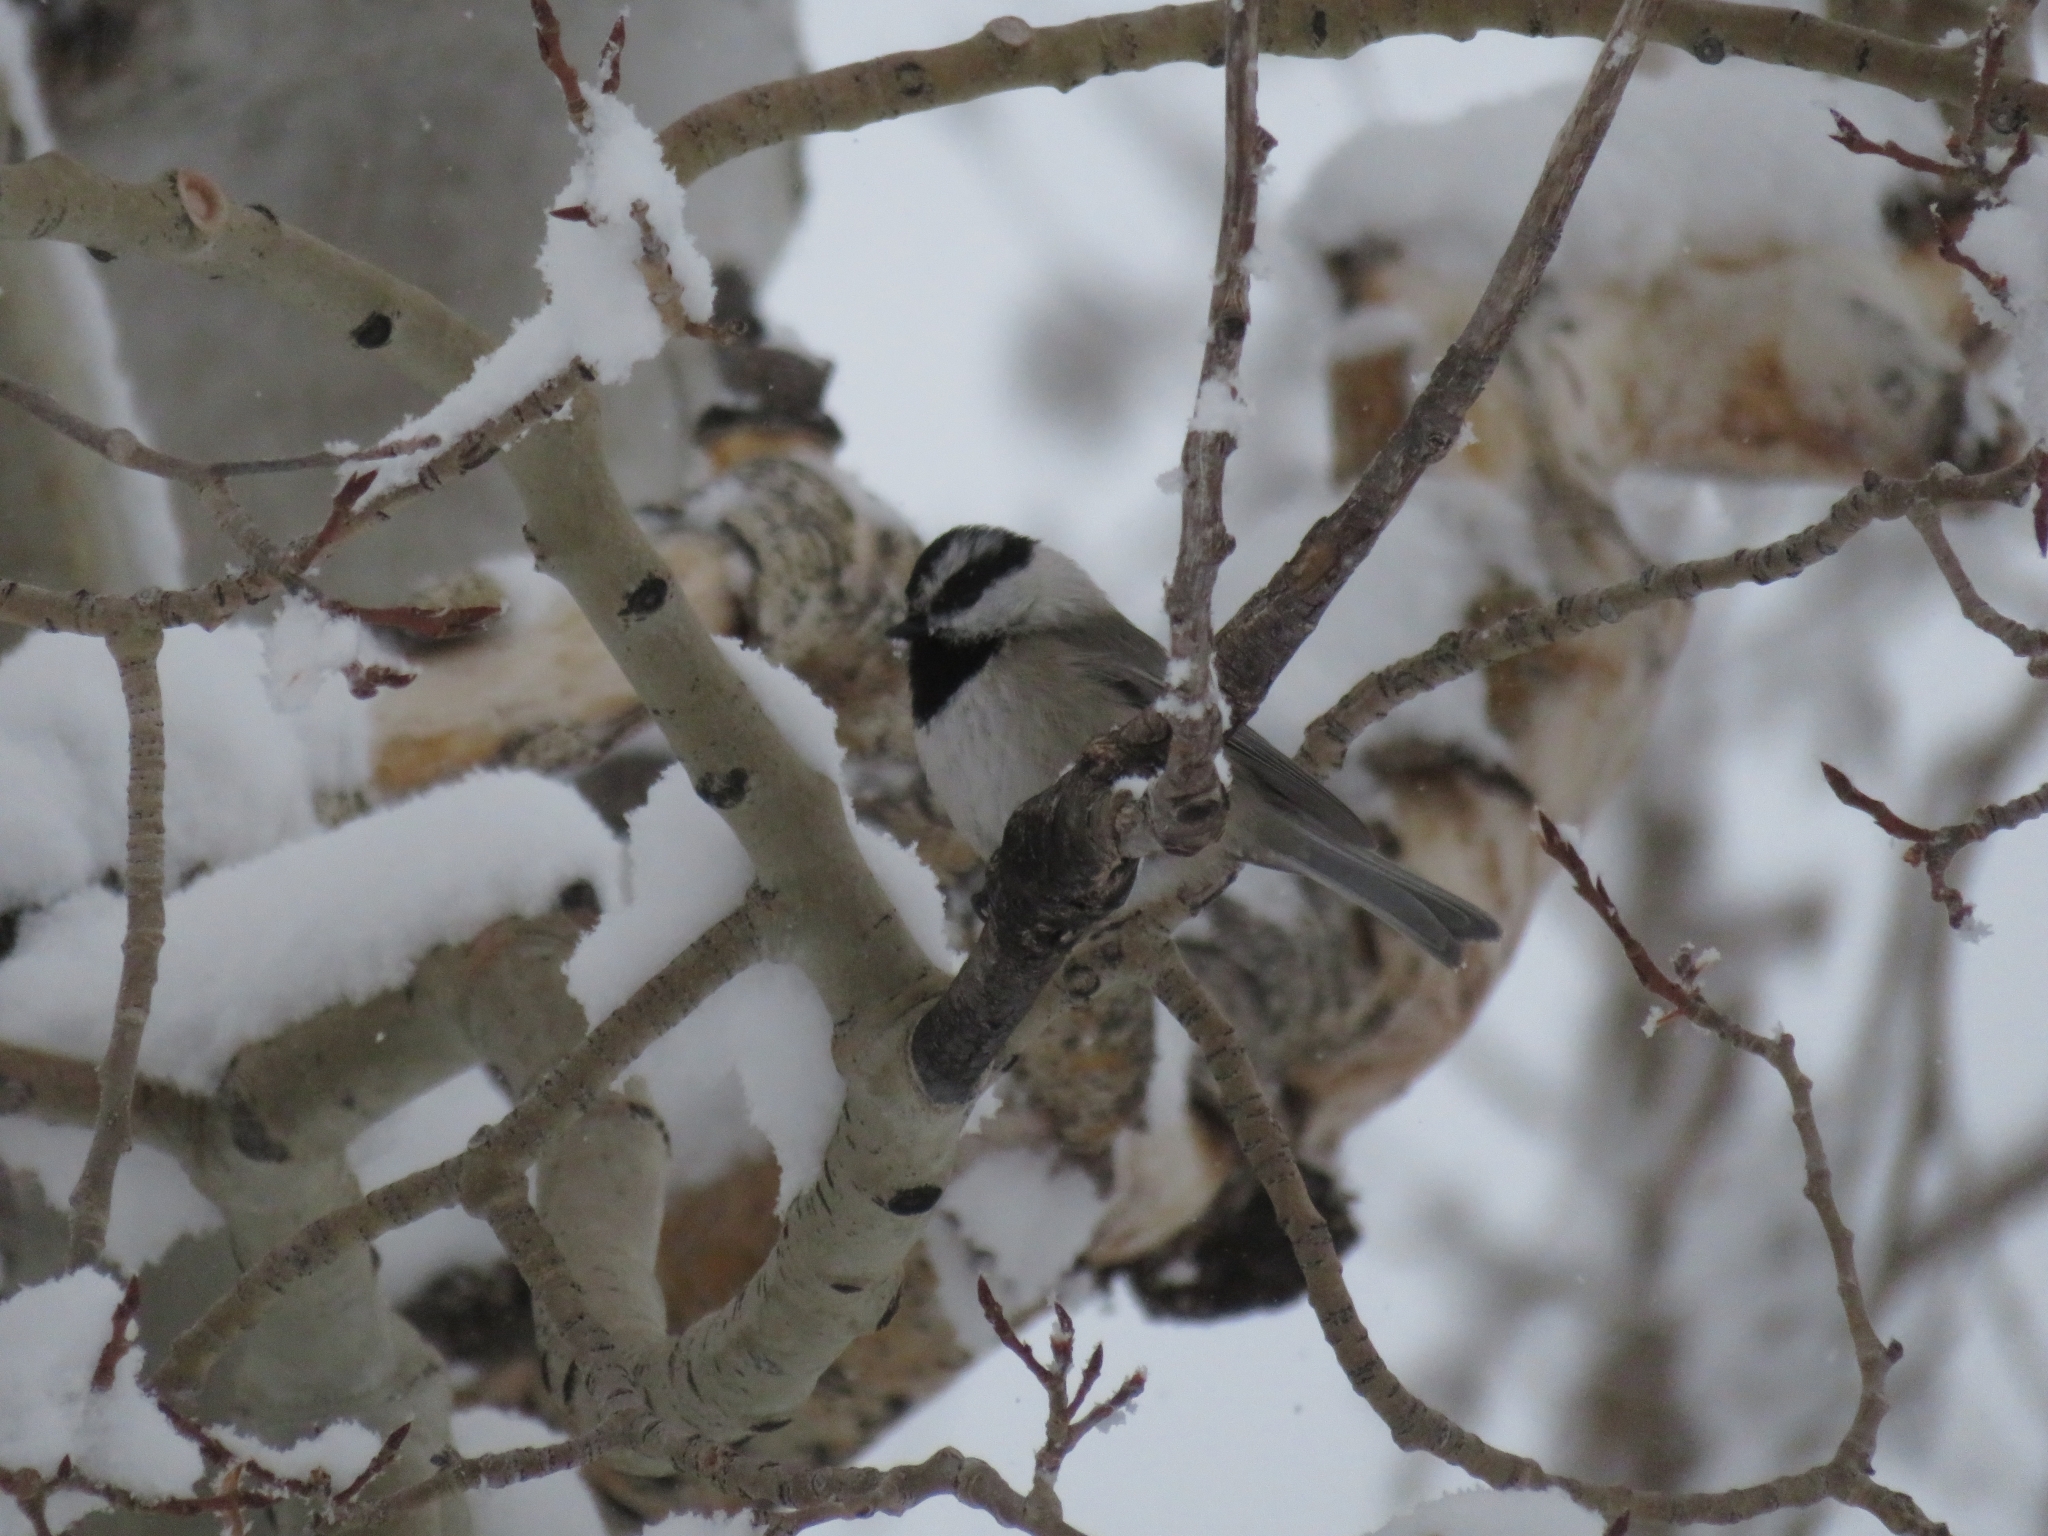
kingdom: Animalia
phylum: Chordata
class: Aves
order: Passeriformes
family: Paridae
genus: Poecile
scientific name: Poecile gambeli
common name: Mountain chickadee
